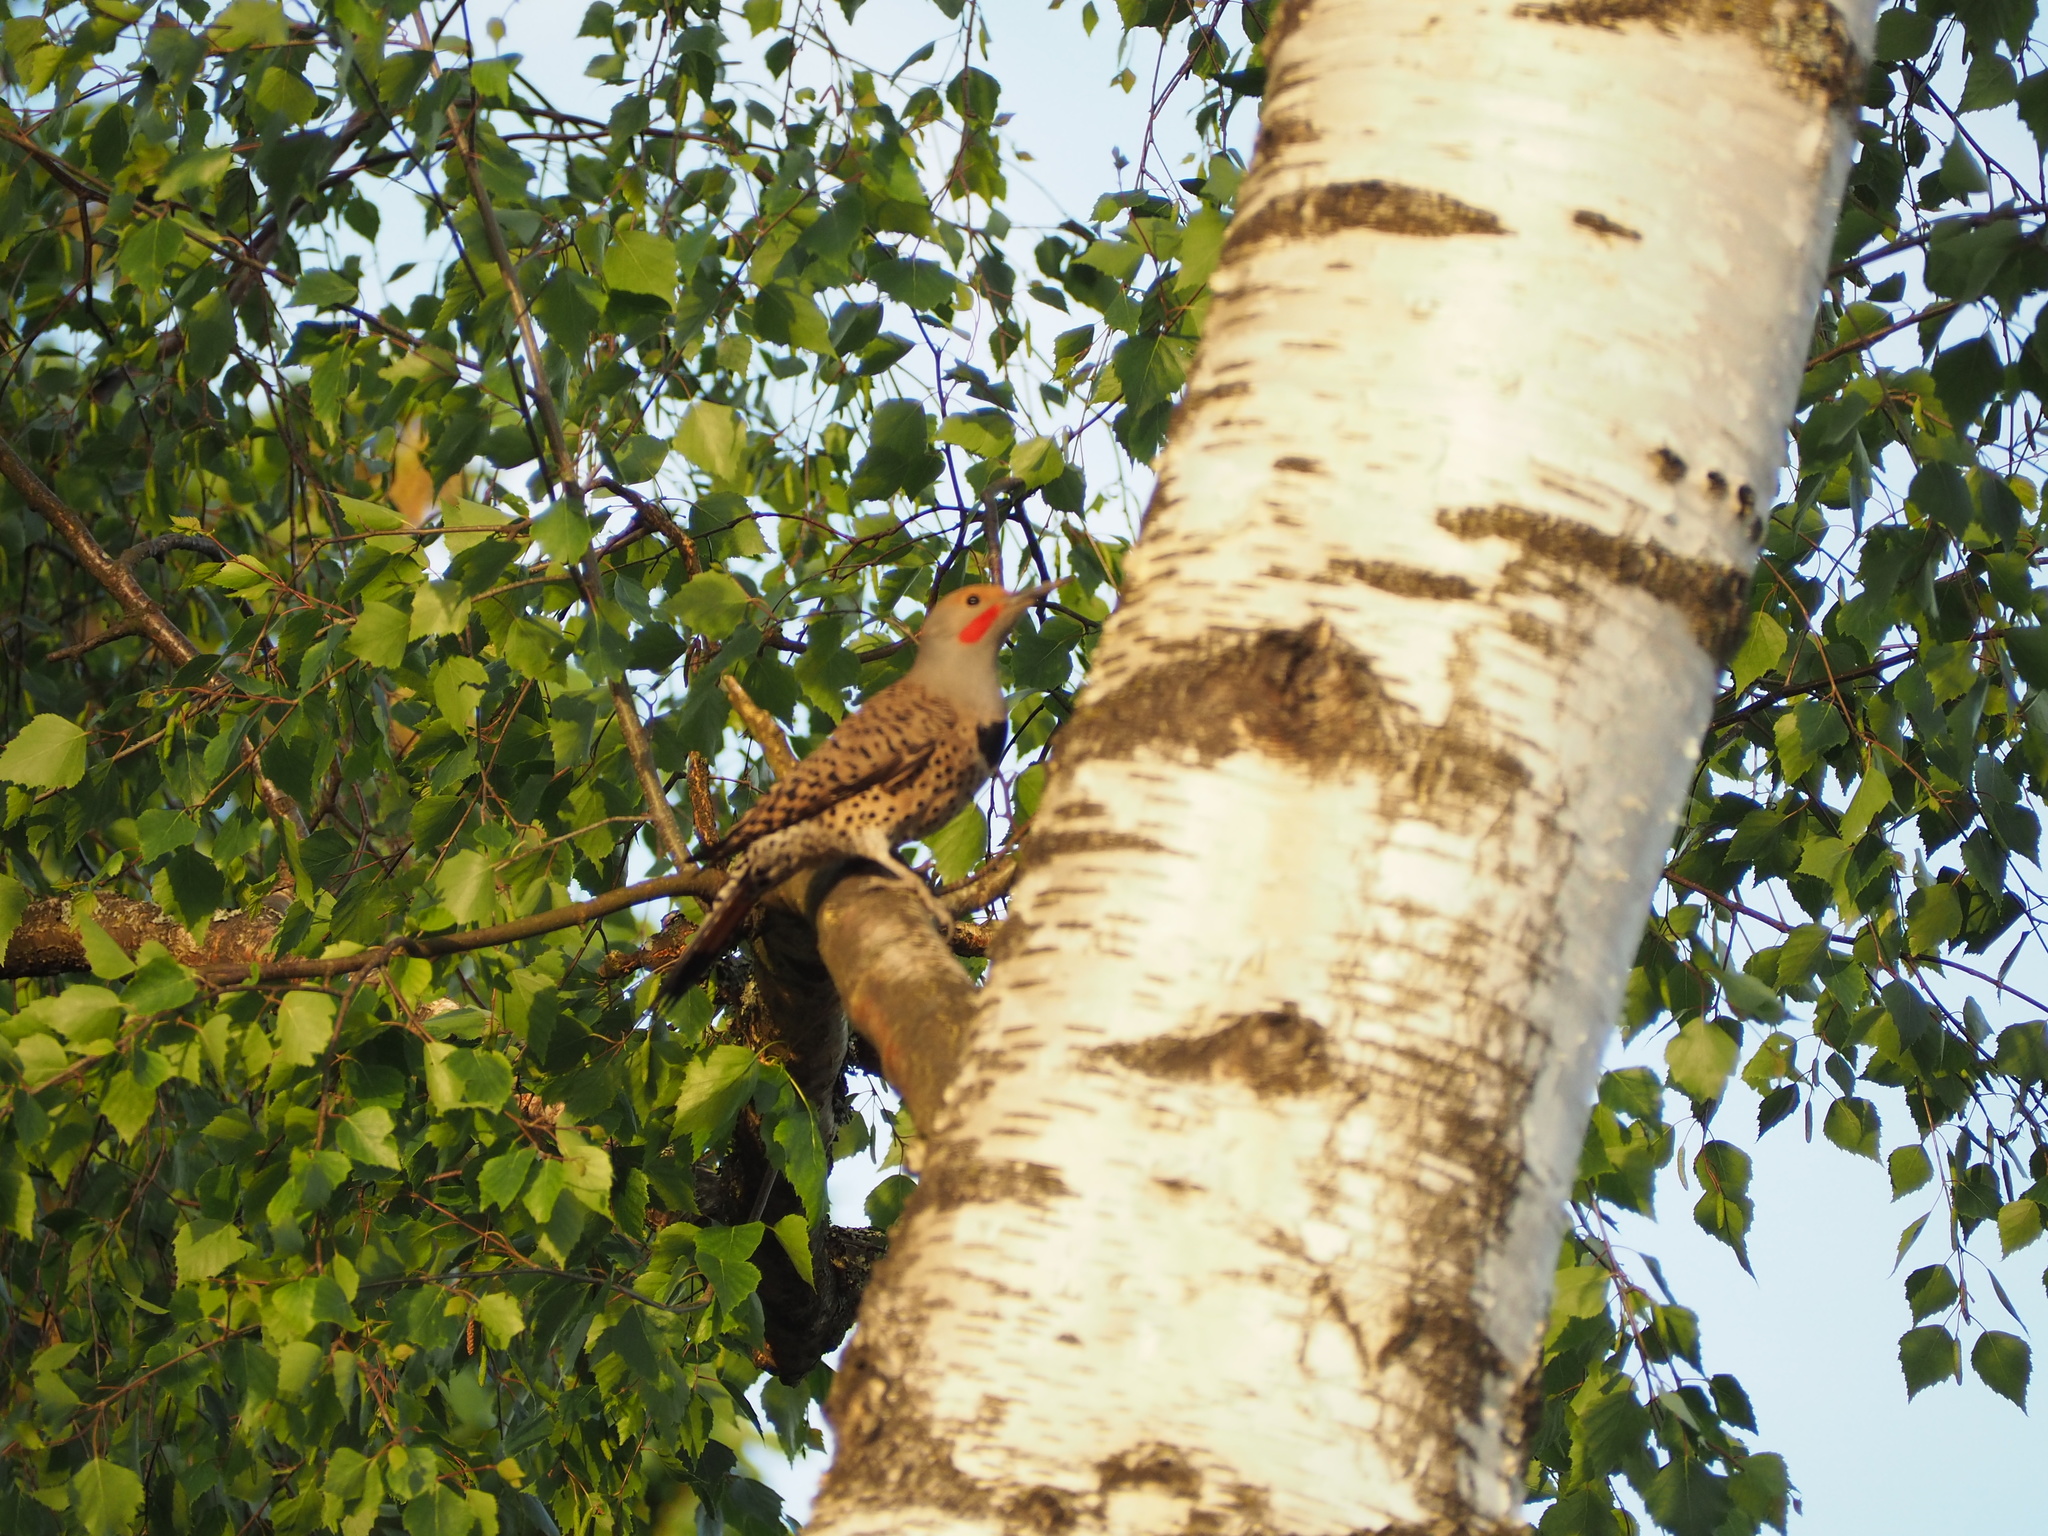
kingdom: Animalia
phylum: Chordata
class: Aves
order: Piciformes
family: Picidae
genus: Colaptes
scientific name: Colaptes auratus
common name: Northern flicker
